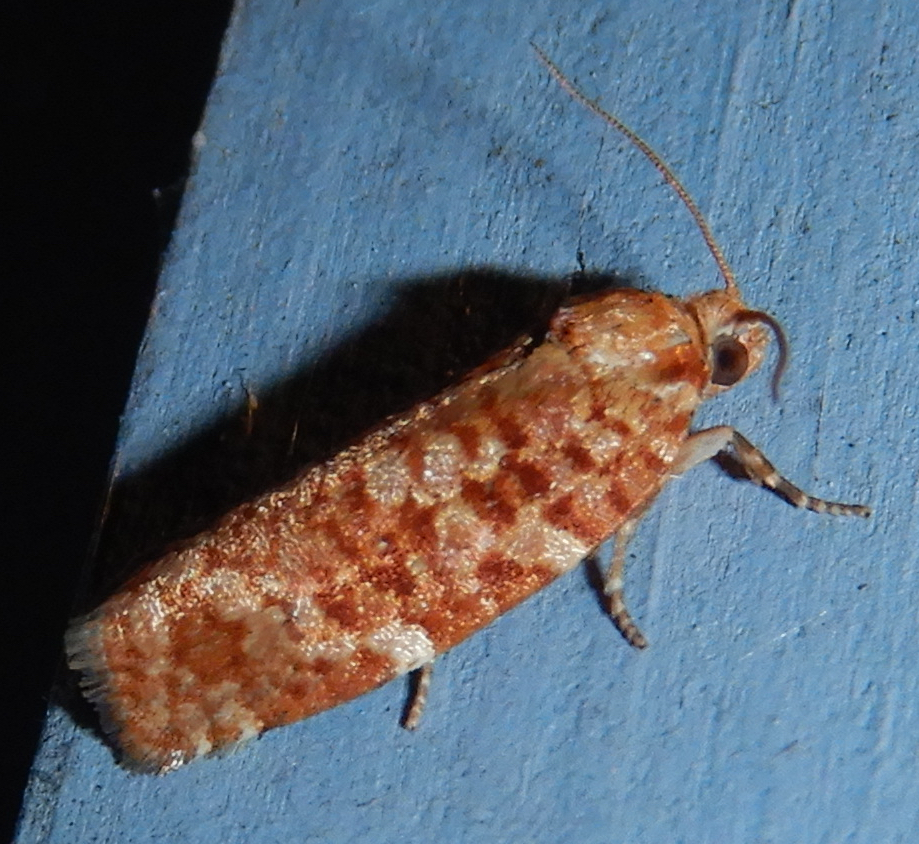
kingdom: Animalia
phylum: Arthropoda
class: Insecta
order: Lepidoptera
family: Tortricidae
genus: Choristoneura
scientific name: Choristoneura pinus
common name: Jack pine budworm
